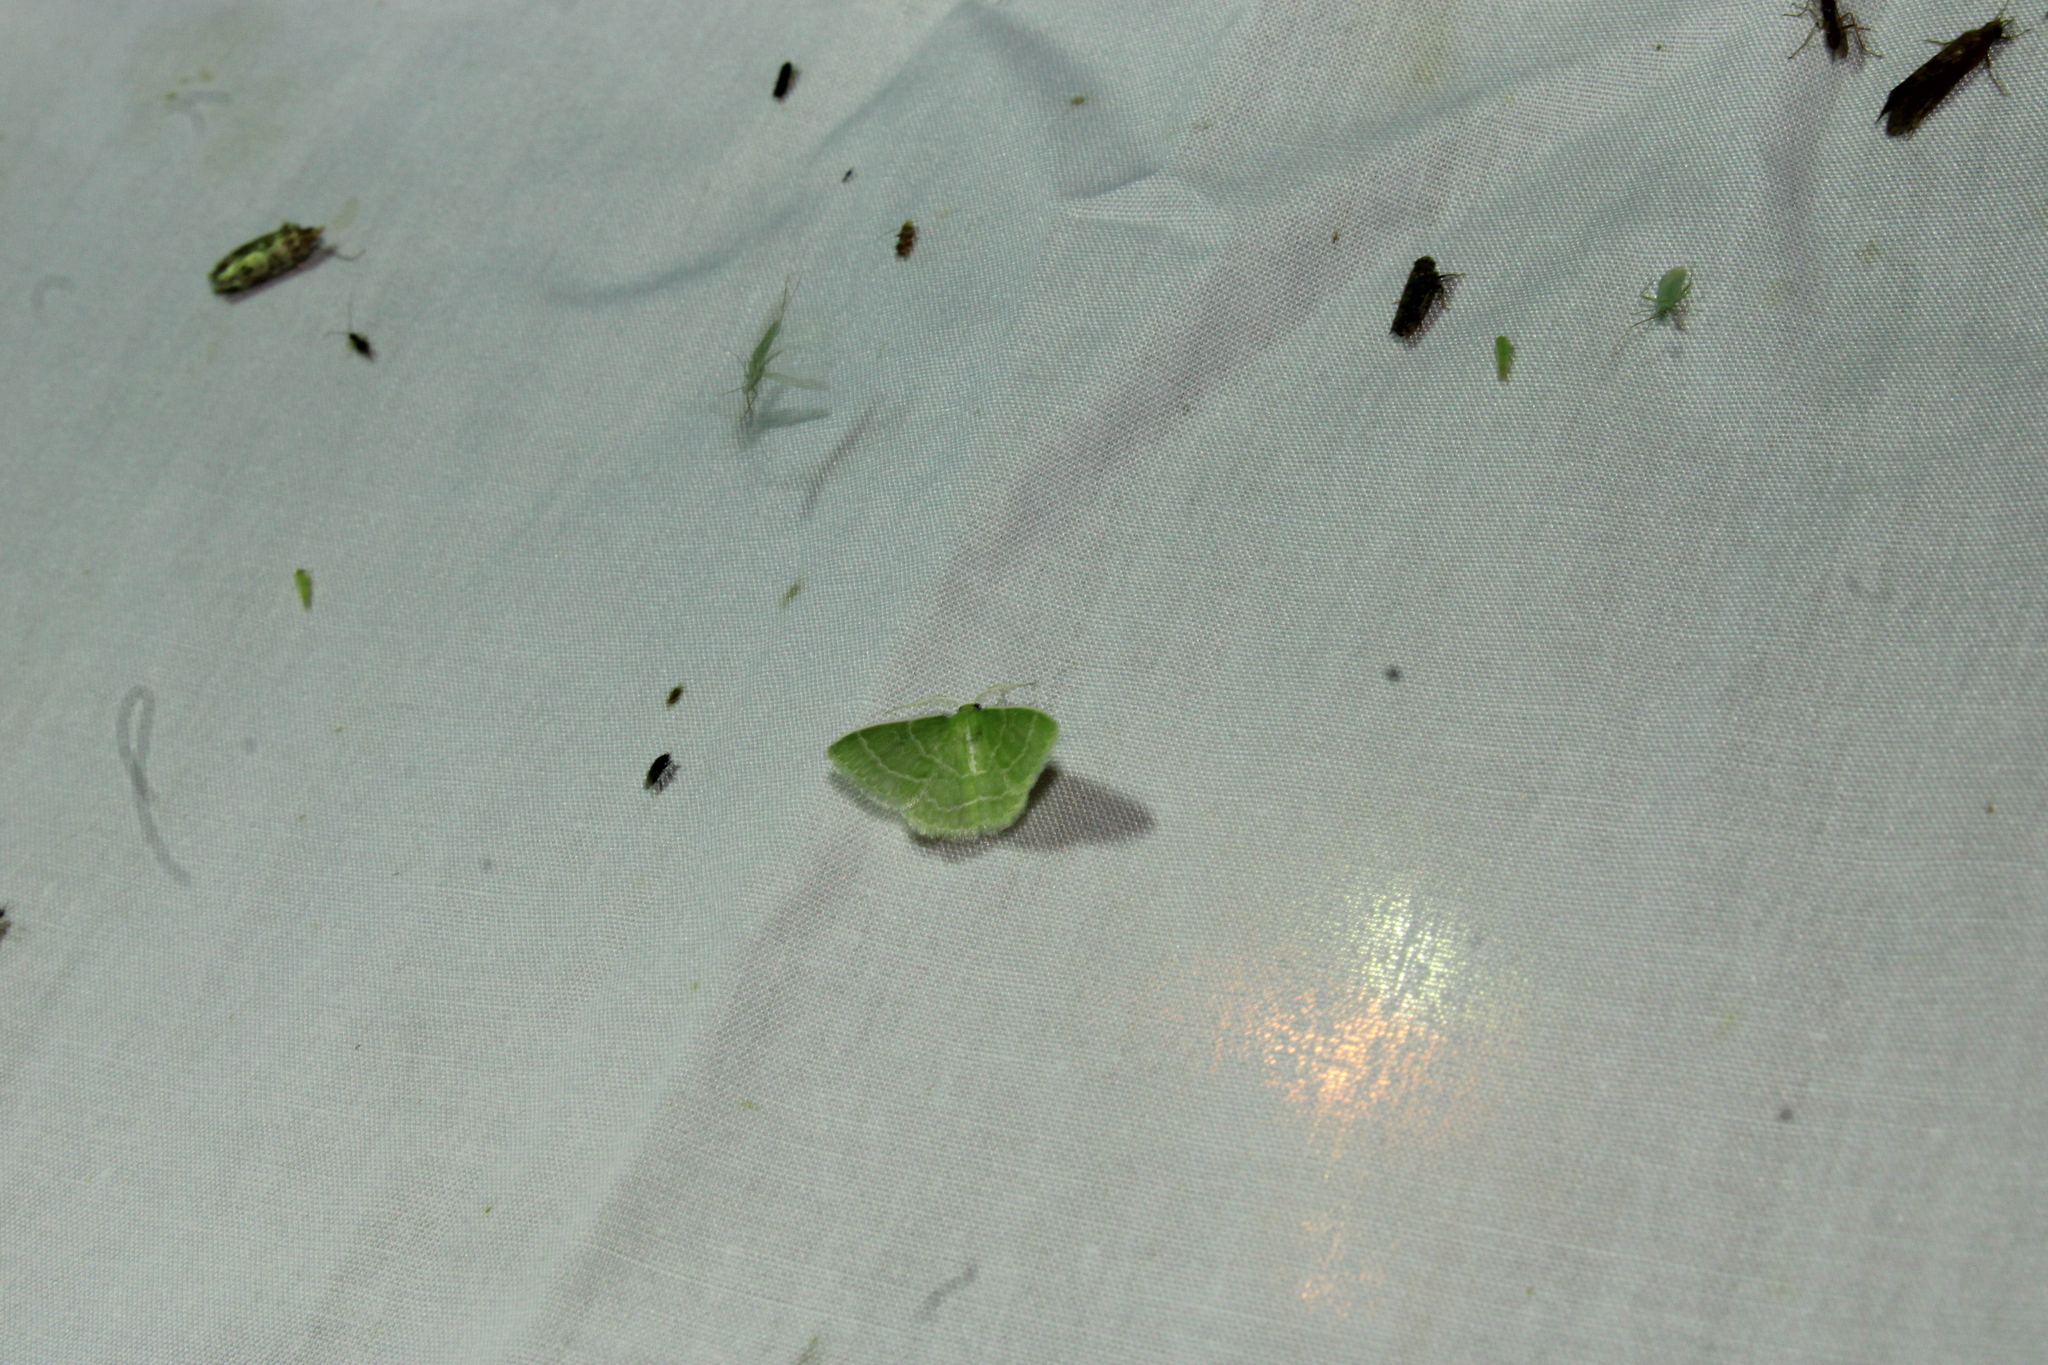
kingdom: Animalia
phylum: Arthropoda
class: Insecta
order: Lepidoptera
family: Geometridae
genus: Synchlora
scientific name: Synchlora aerata
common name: Wavy-lined emerald
